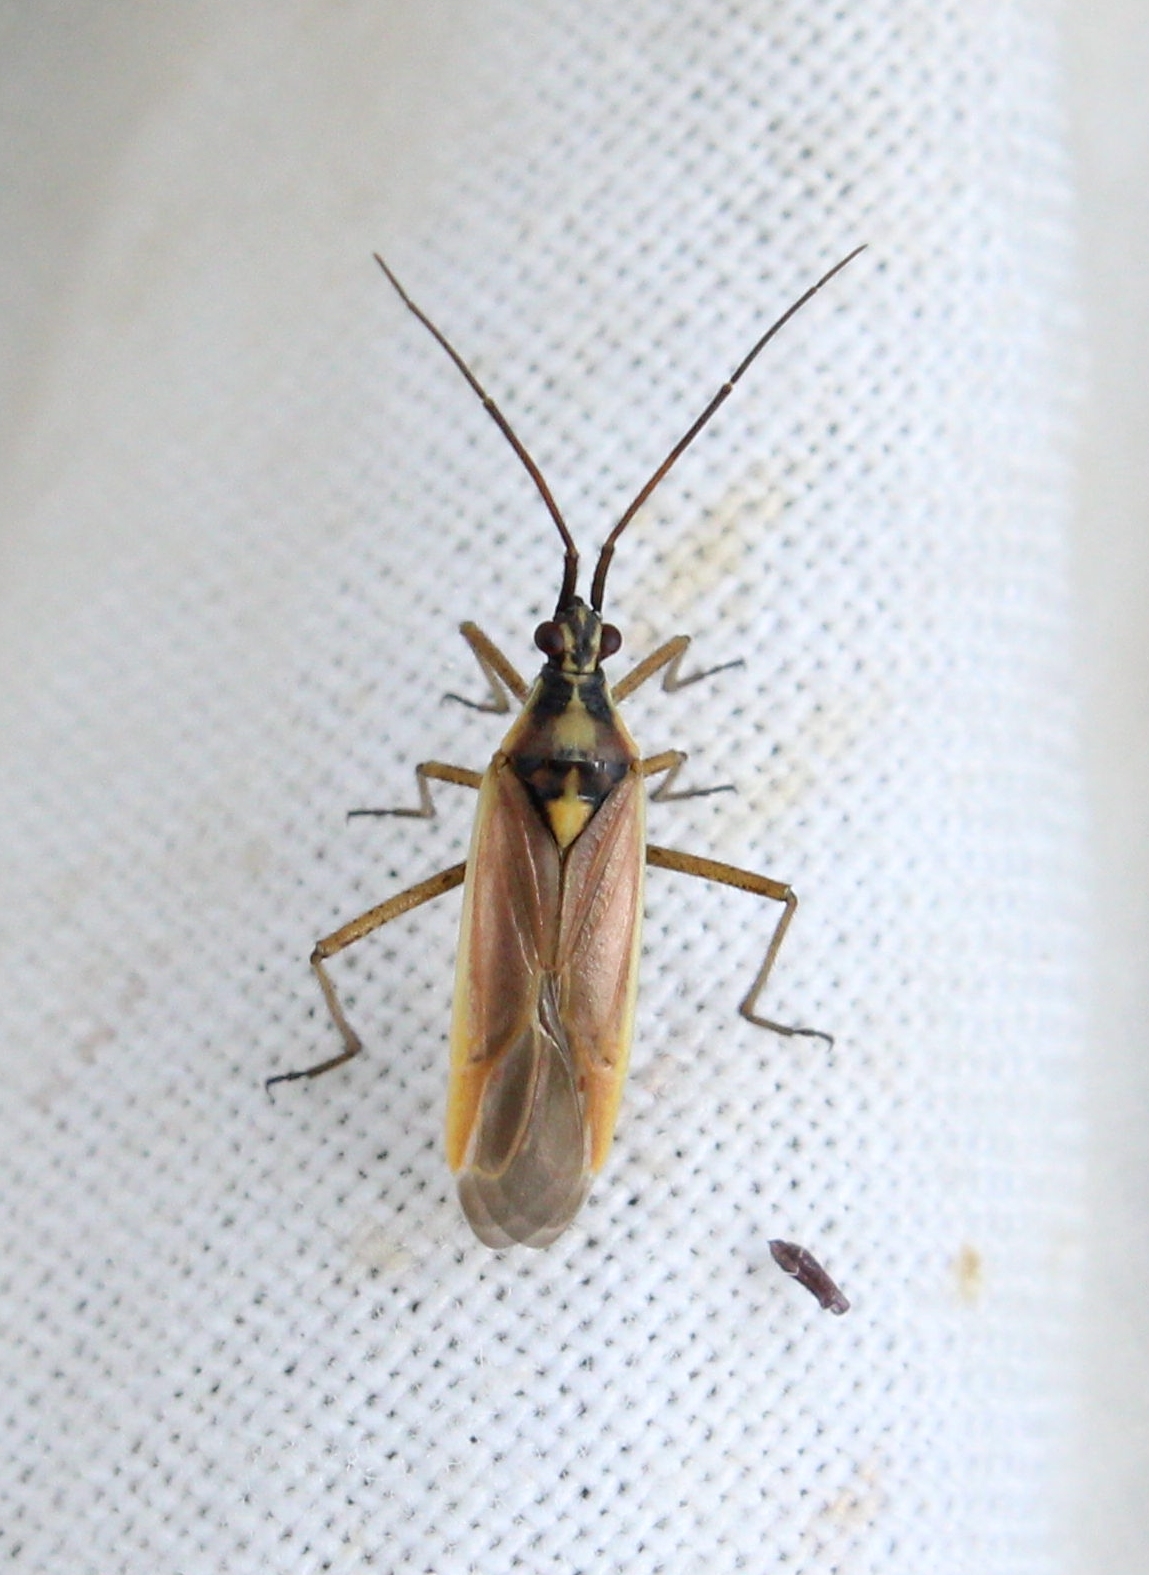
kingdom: Animalia
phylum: Arthropoda
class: Insecta
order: Hemiptera
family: Miridae
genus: Leptopterna
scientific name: Leptopterna ferrugata
